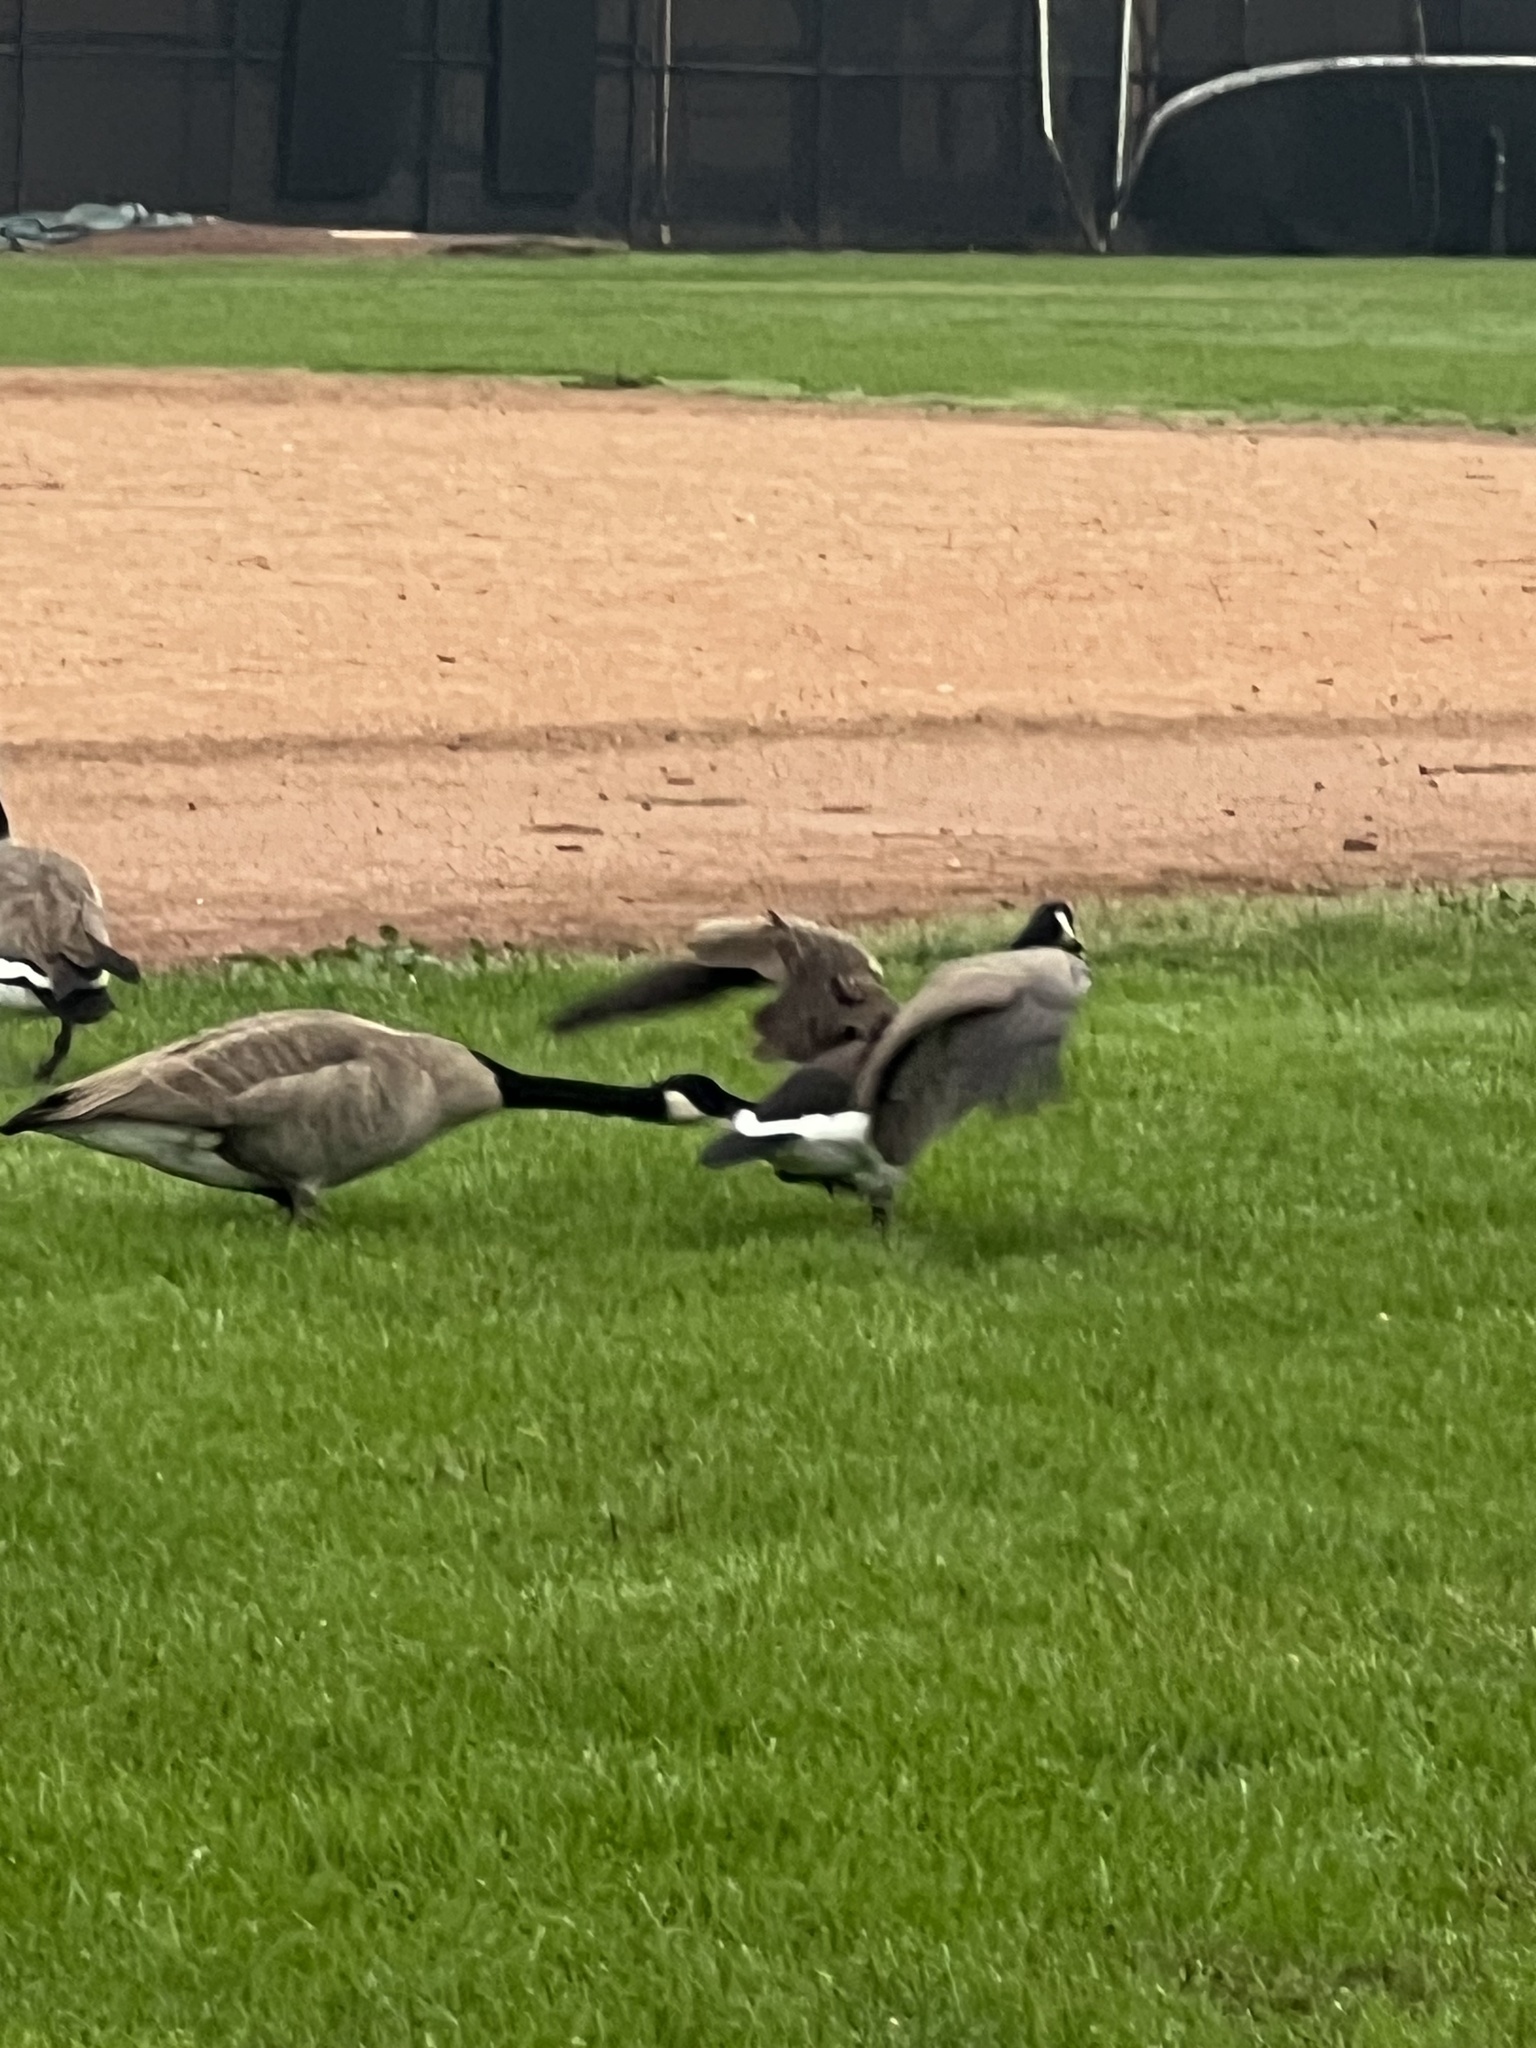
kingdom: Animalia
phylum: Chordata
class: Aves
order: Anseriformes
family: Anatidae
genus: Branta
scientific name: Branta canadensis
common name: Canada goose
